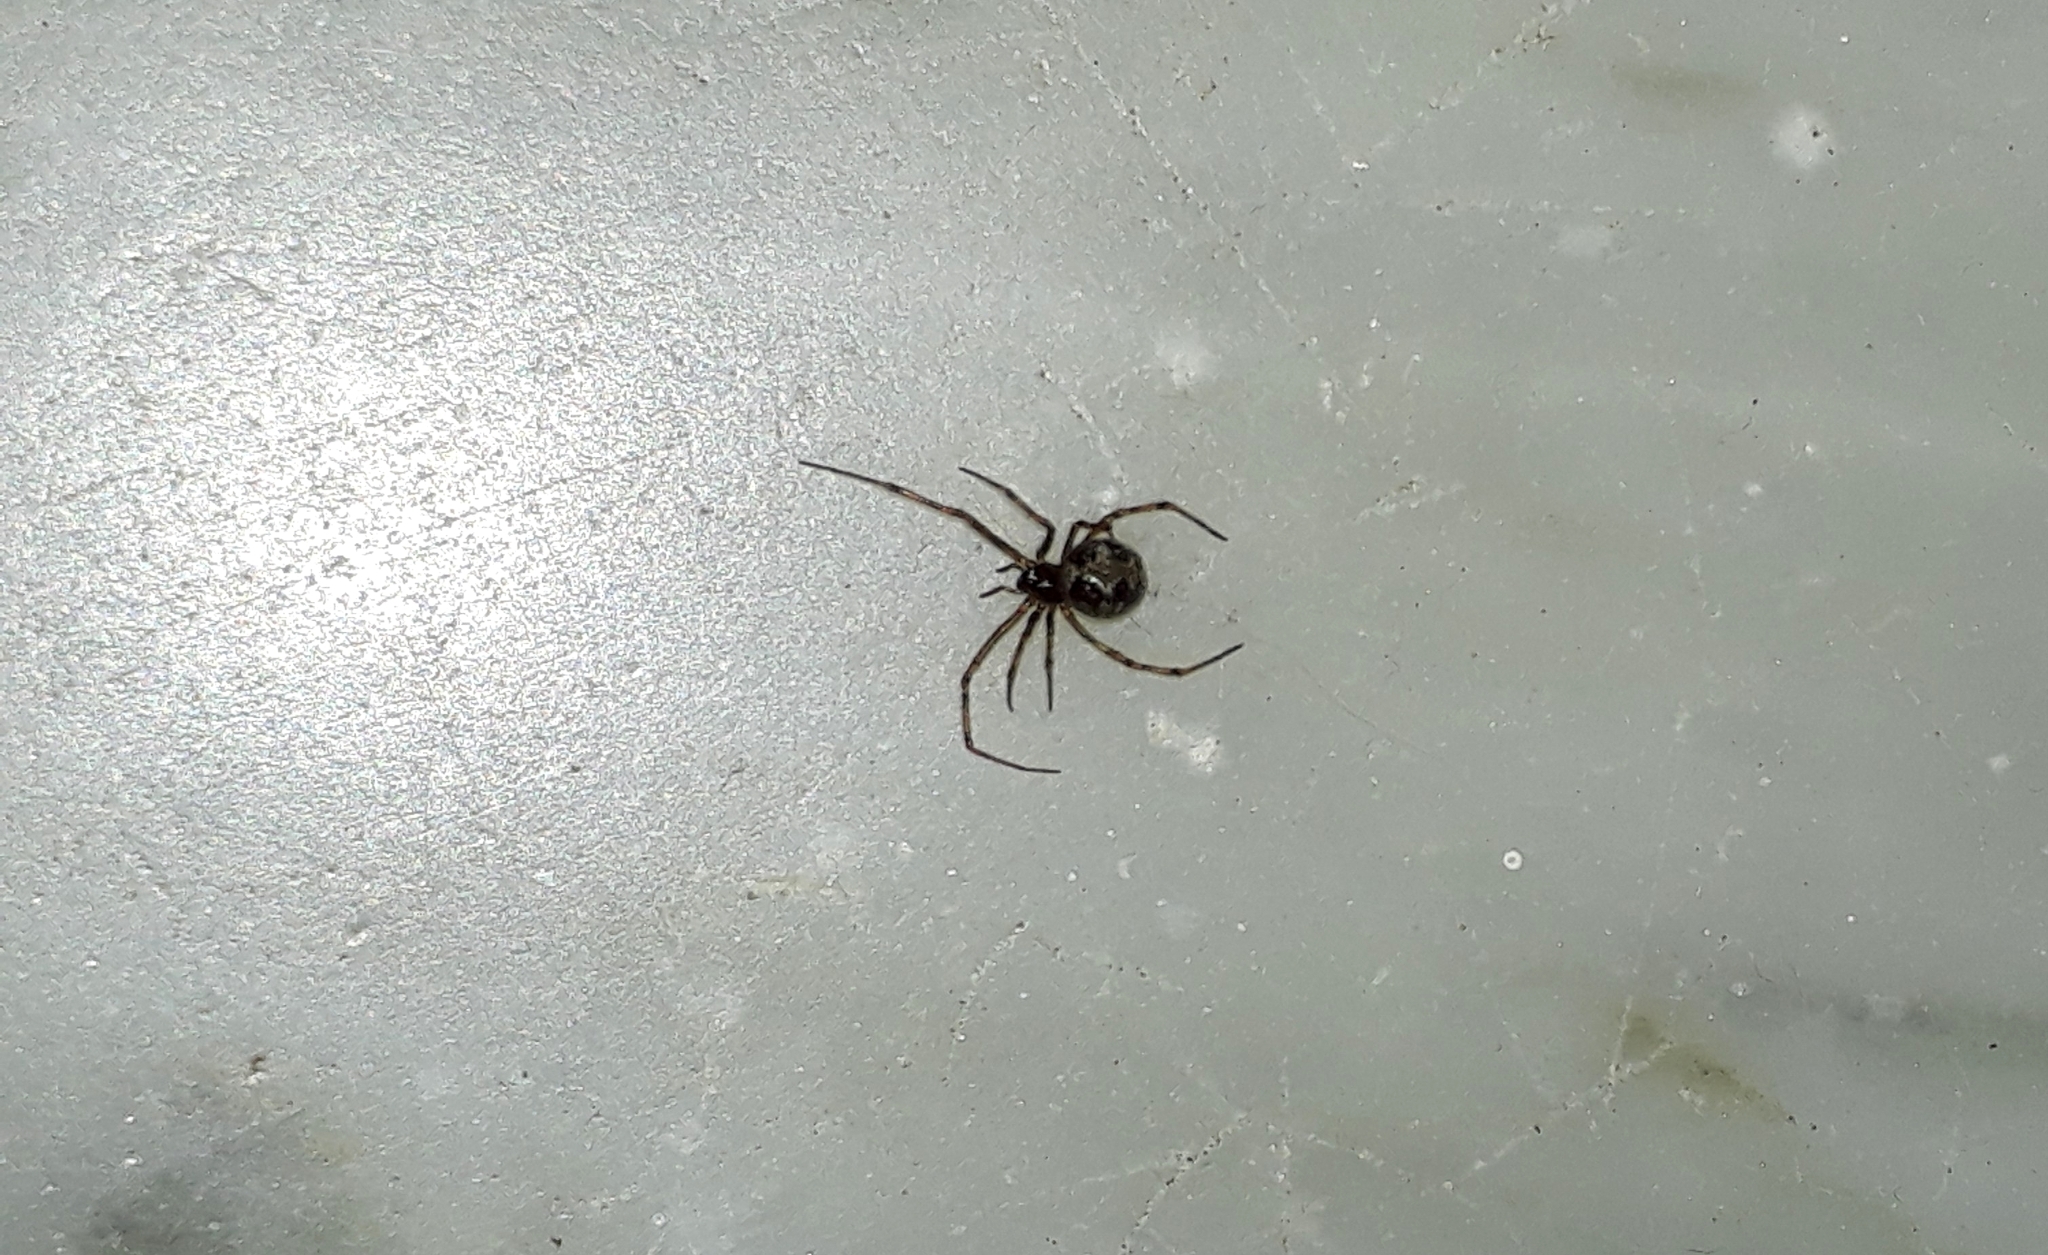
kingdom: Animalia
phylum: Arthropoda
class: Arachnida
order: Araneae
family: Theridiidae
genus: Steatoda
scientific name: Steatoda triangulosa
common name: Triangulate bud spider
